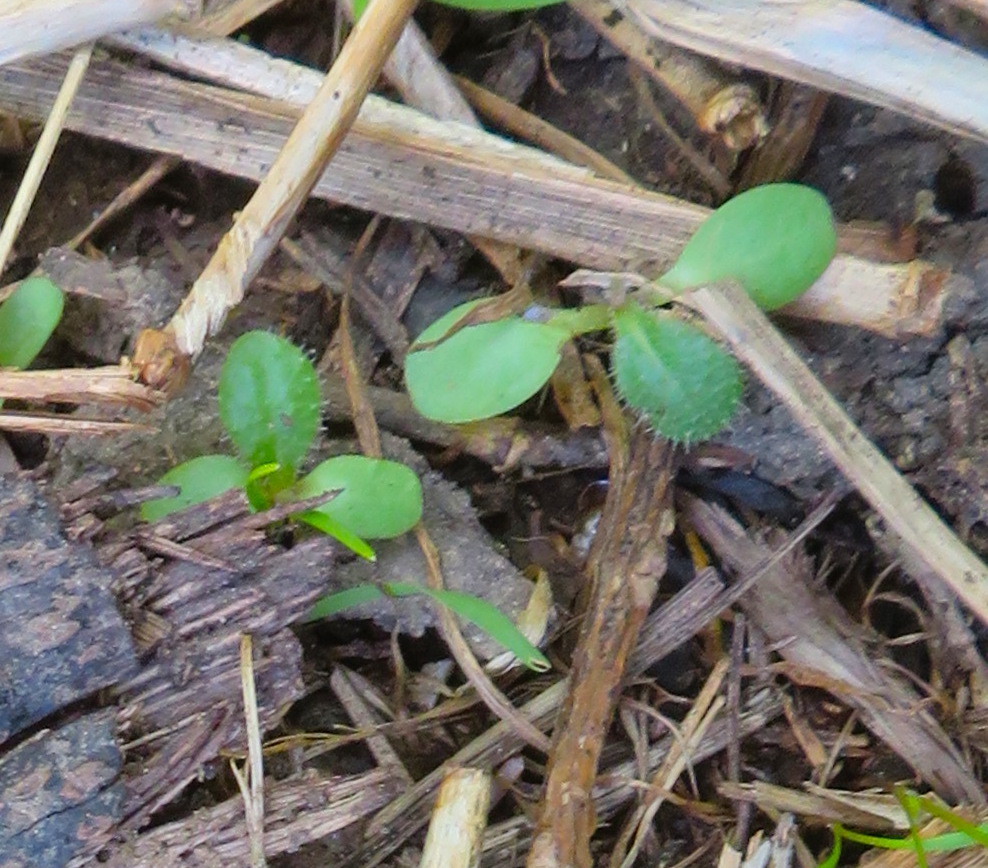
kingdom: Plantae
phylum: Tracheophyta
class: Magnoliopsida
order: Asterales
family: Asteraceae
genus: Helminthotheca
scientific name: Helminthotheca echioides
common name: Ox-tongue
